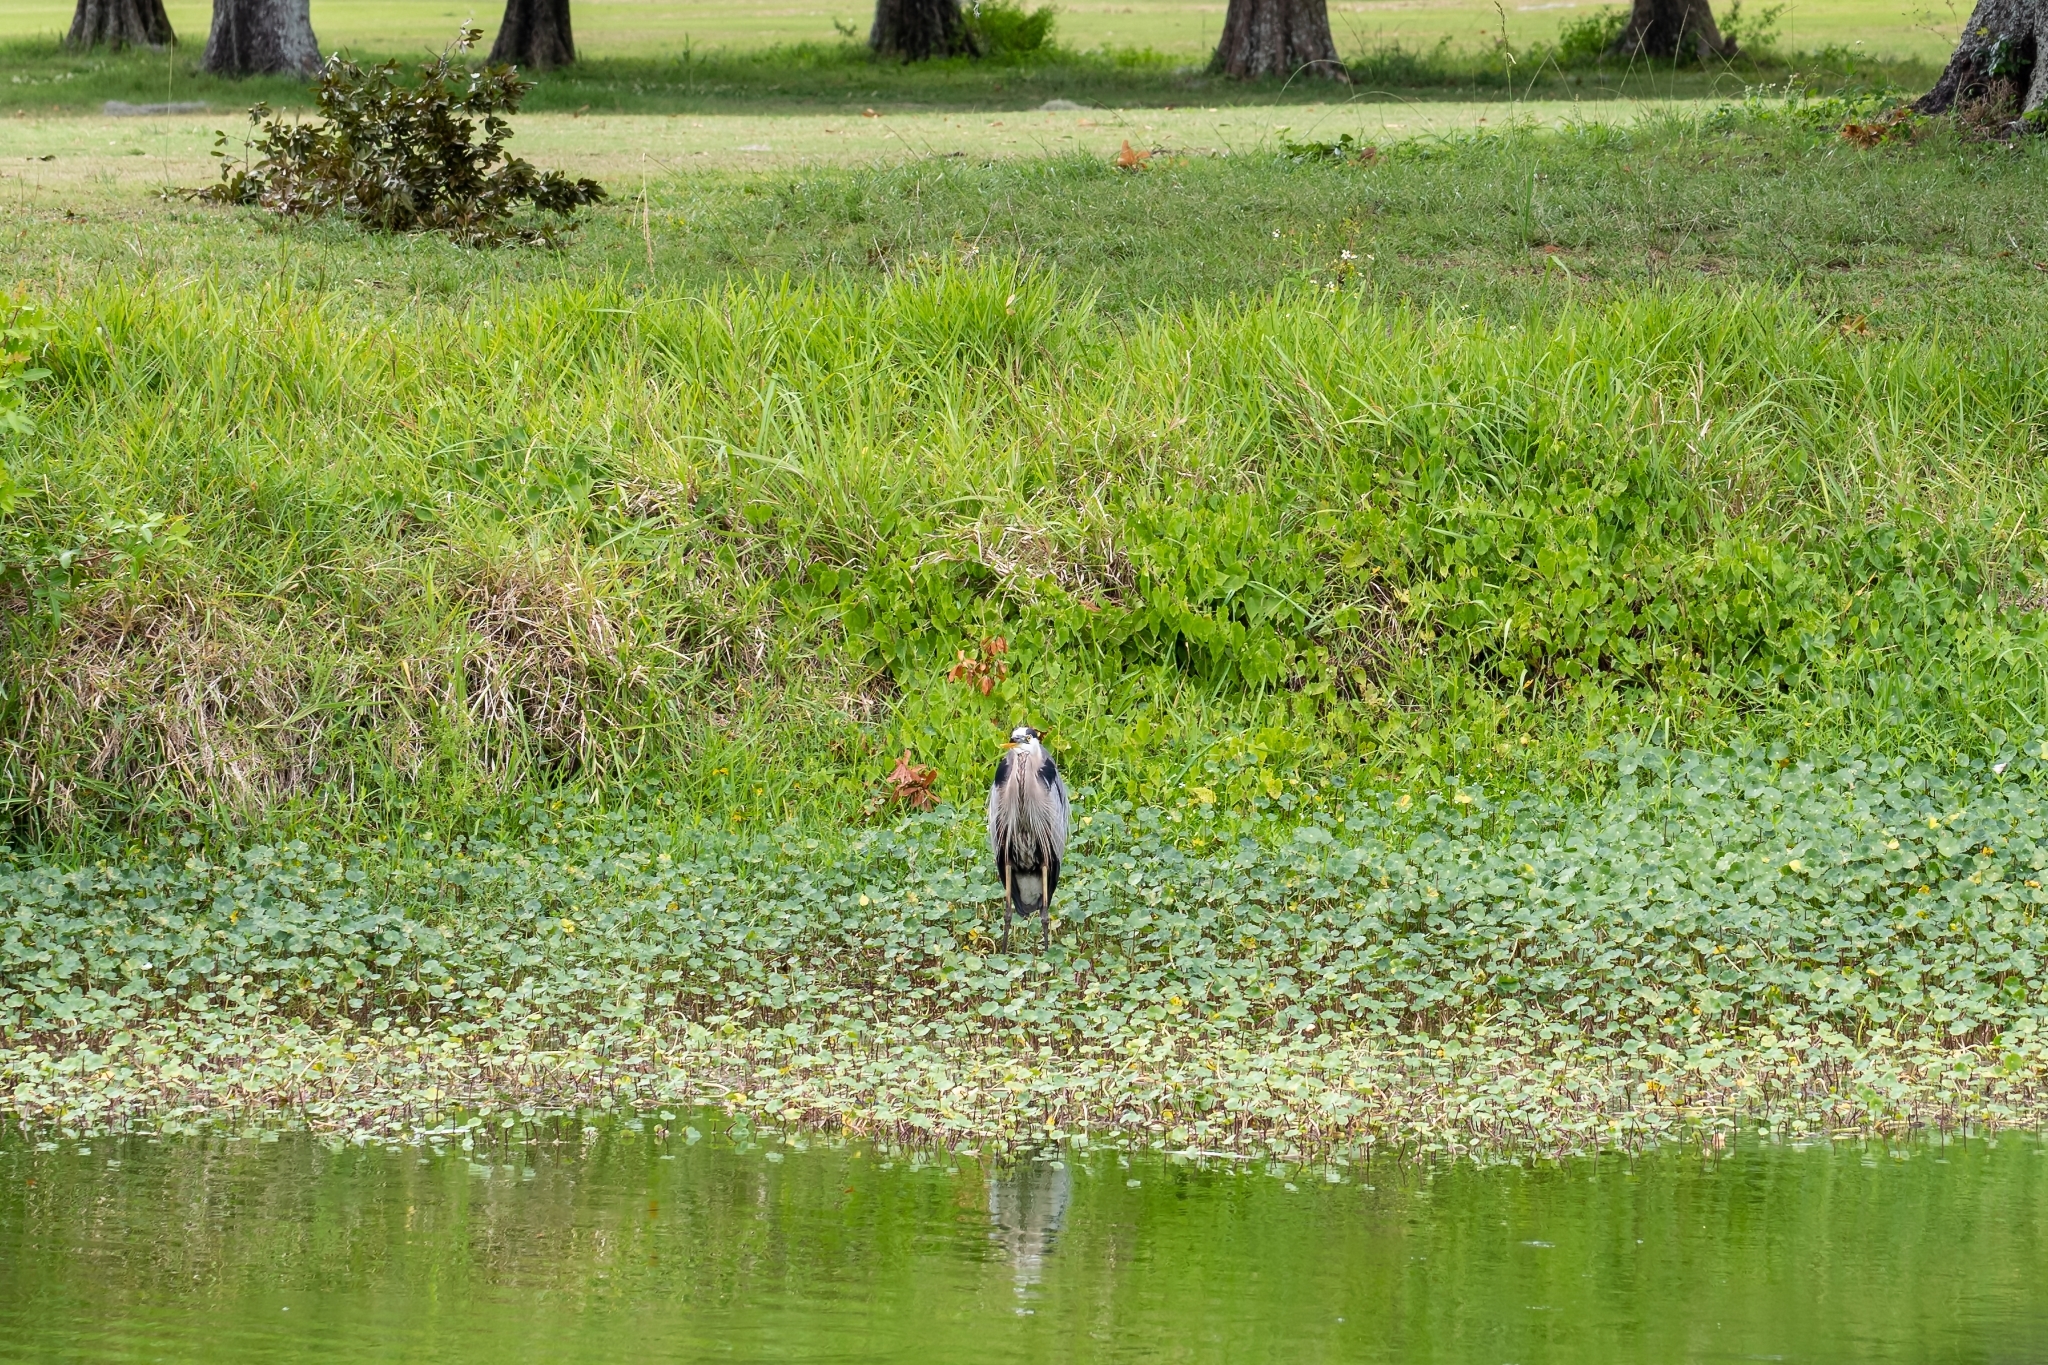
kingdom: Animalia
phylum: Chordata
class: Aves
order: Pelecaniformes
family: Ardeidae
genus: Ardea
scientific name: Ardea herodias
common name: Great blue heron
